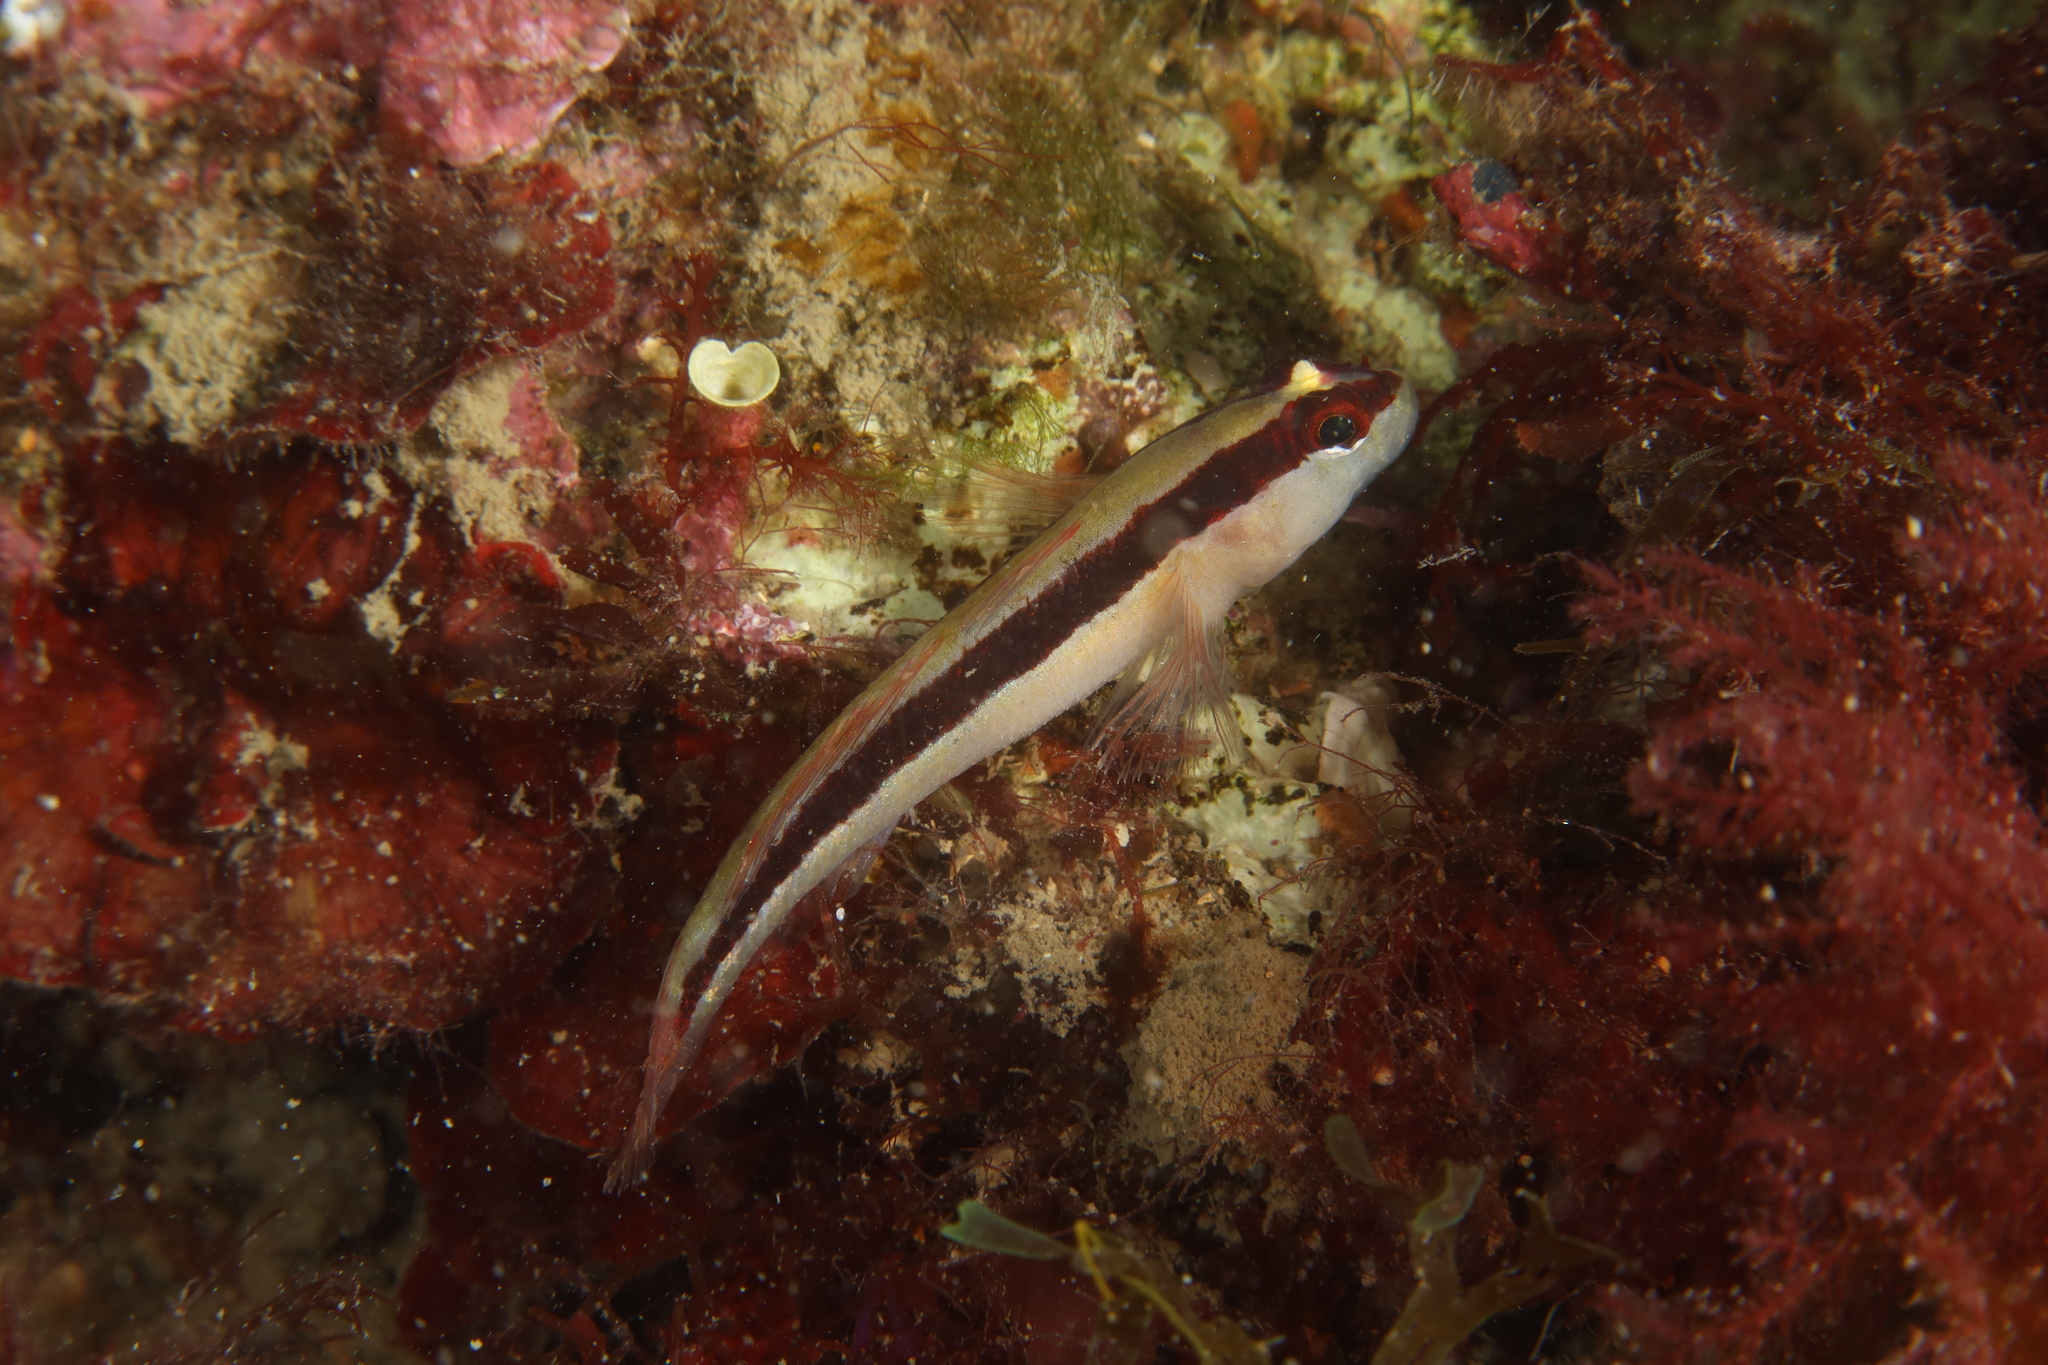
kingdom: Animalia
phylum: Chordata
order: Perciformes
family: Gobiidae
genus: Gobius
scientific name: Gobius vittatus
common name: Striped goby
